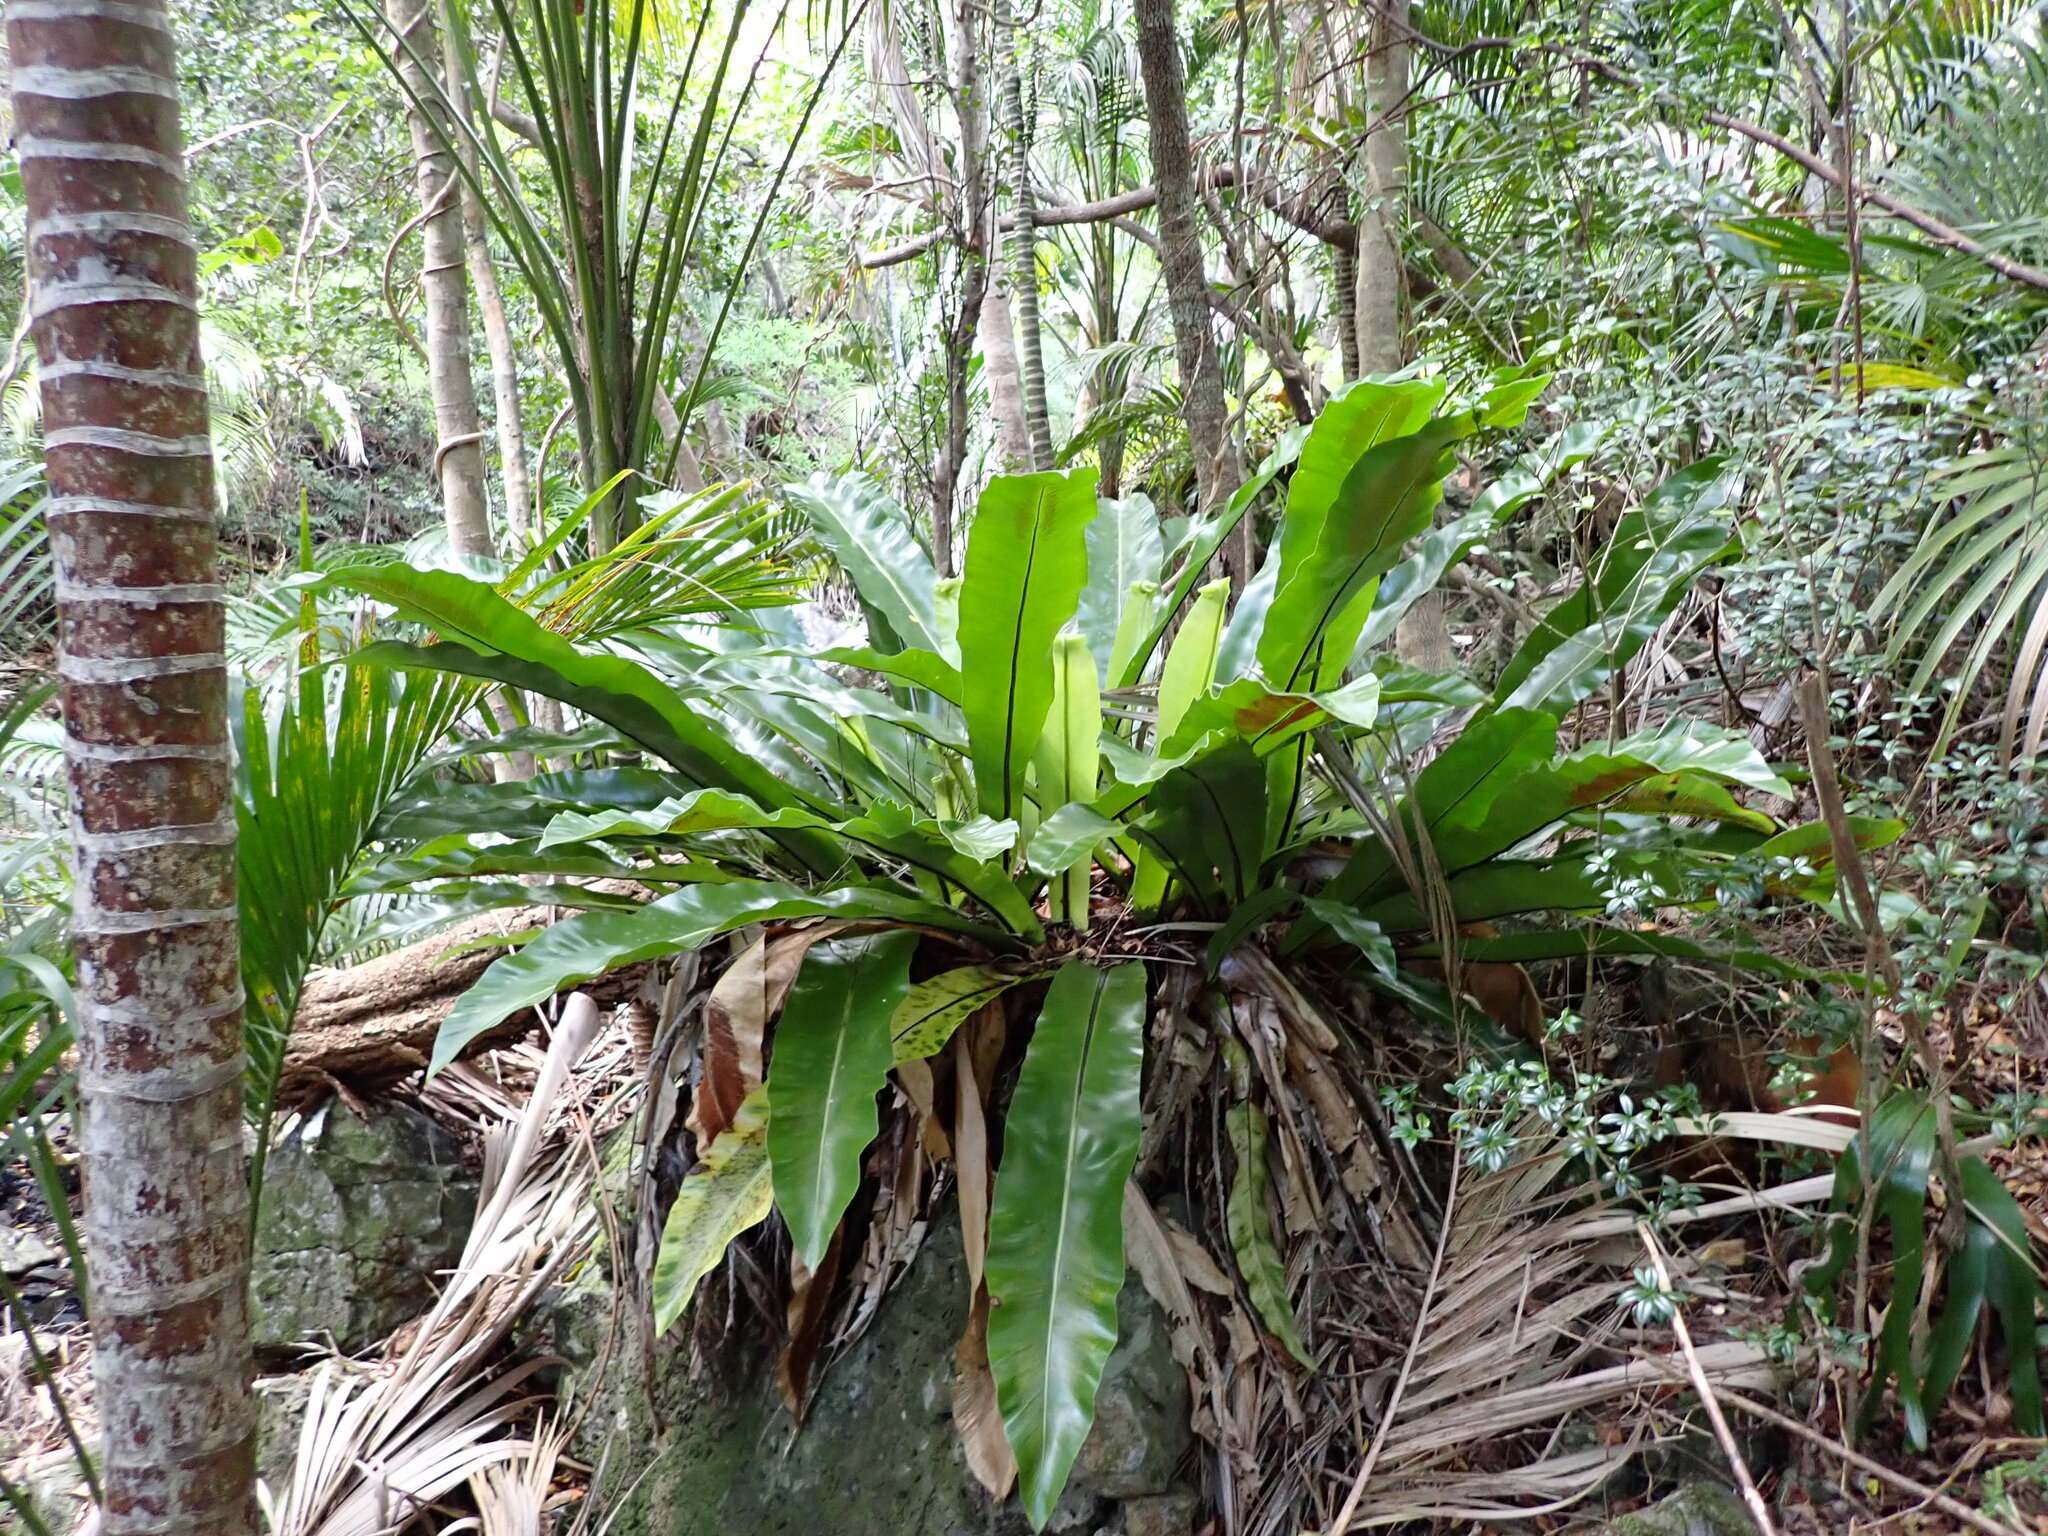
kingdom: Plantae
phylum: Tracheophyta
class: Polypodiopsida
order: Polypodiales
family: Aspleniaceae
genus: Asplenium
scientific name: Asplenium goudeyi
